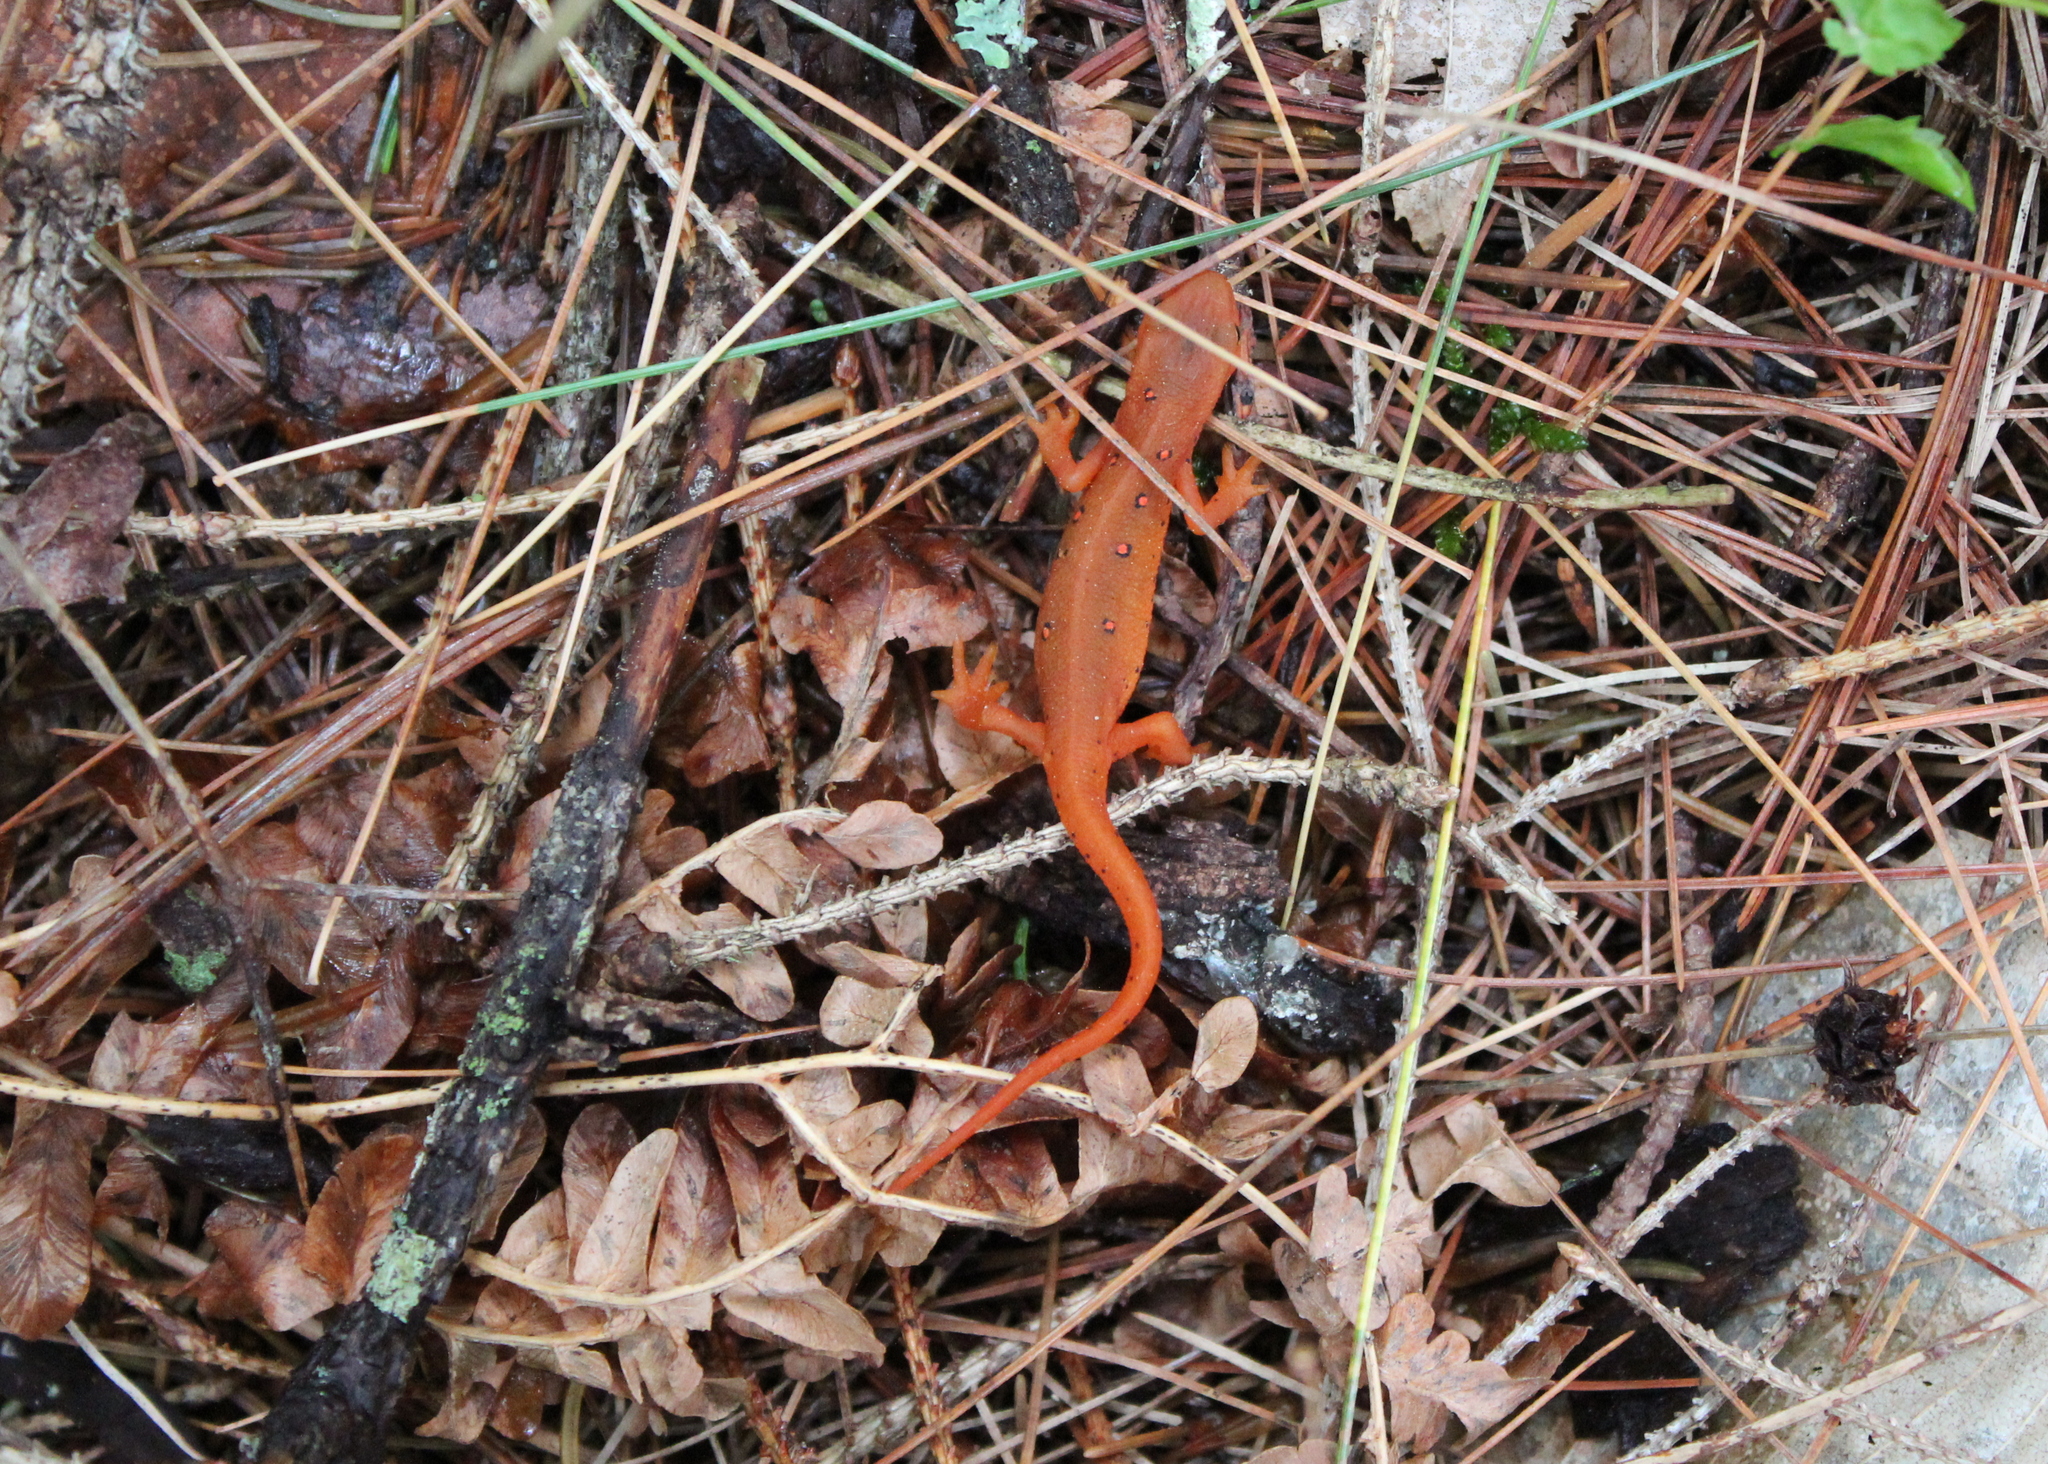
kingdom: Animalia
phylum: Chordata
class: Amphibia
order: Caudata
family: Salamandridae
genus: Notophthalmus
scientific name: Notophthalmus viridescens
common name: Eastern newt
